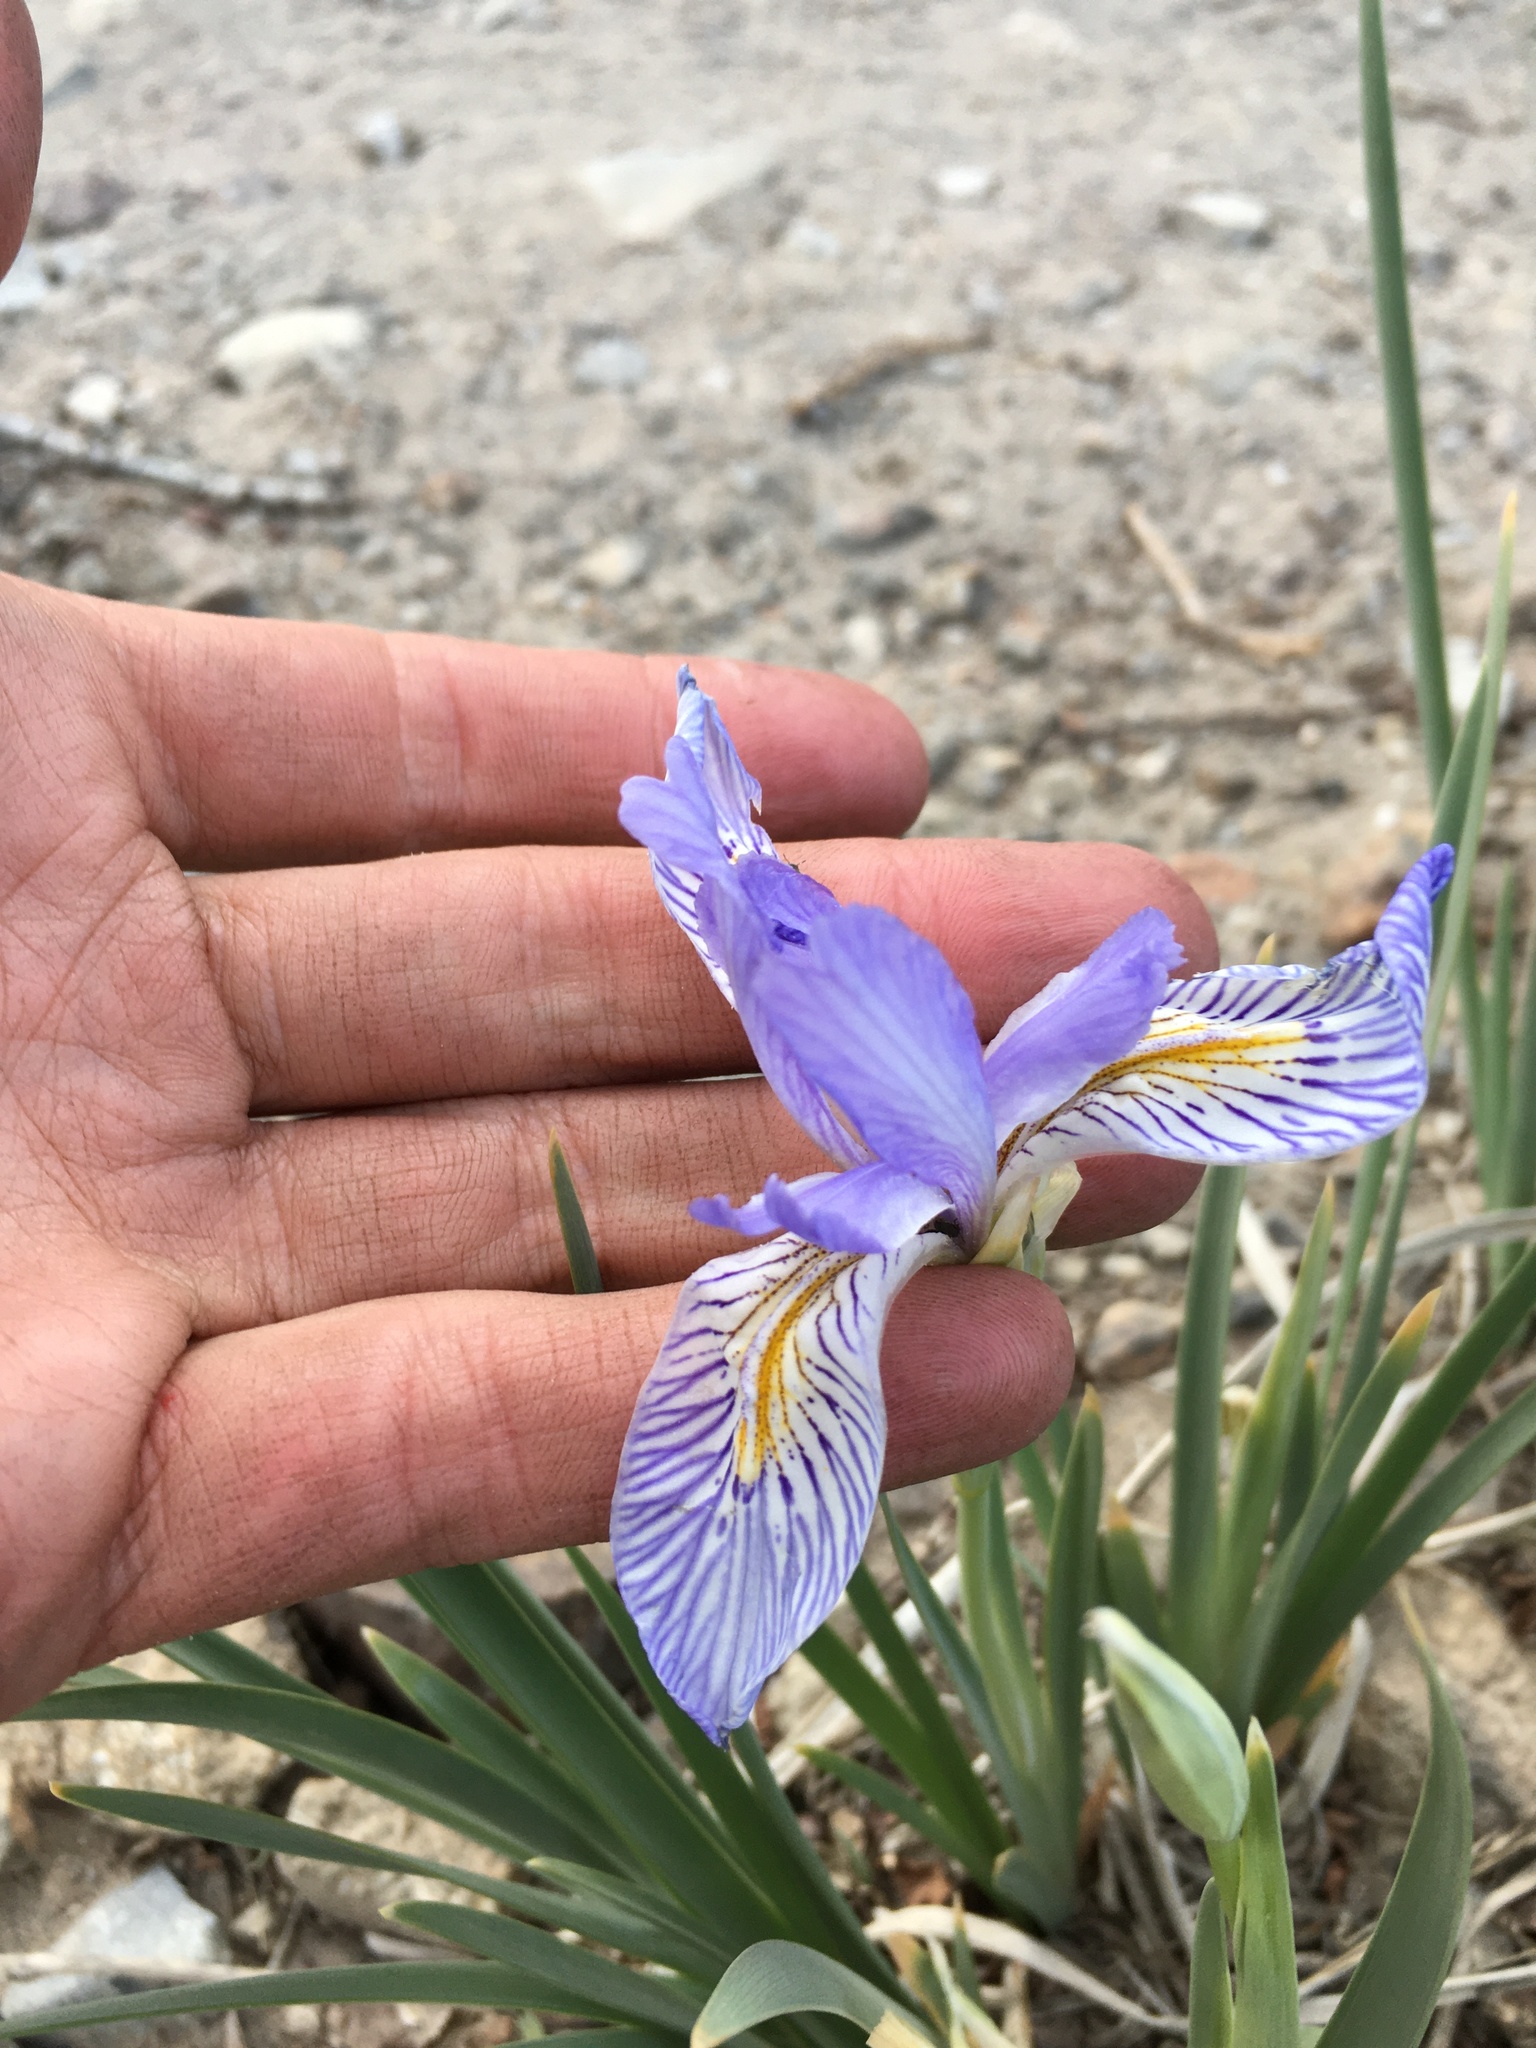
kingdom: Plantae
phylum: Tracheophyta
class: Liliopsida
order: Asparagales
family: Iridaceae
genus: Iris
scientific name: Iris missouriensis
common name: Rocky mountain iris
